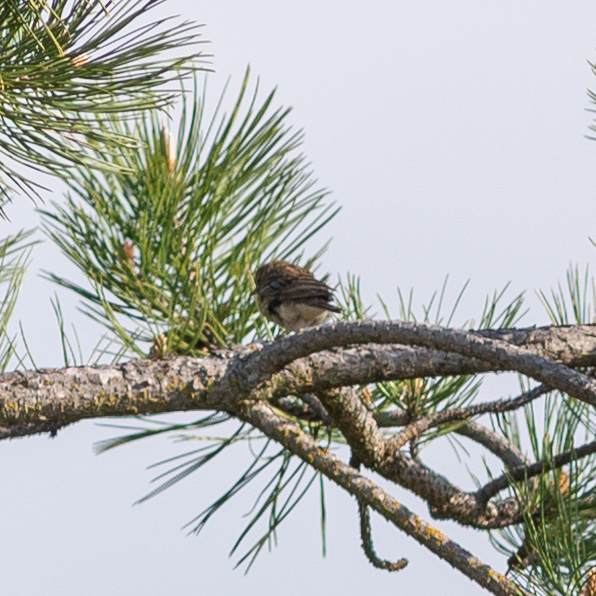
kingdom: Animalia
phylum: Chordata
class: Aves
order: Passeriformes
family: Motacillidae
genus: Anthus
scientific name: Anthus trivialis
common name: Tree pipit
